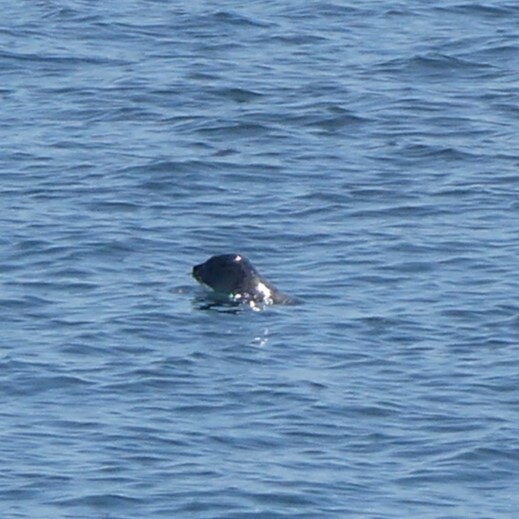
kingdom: Animalia
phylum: Chordata
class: Mammalia
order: Carnivora
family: Phocidae
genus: Phoca
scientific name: Phoca vitulina
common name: Harbor seal
